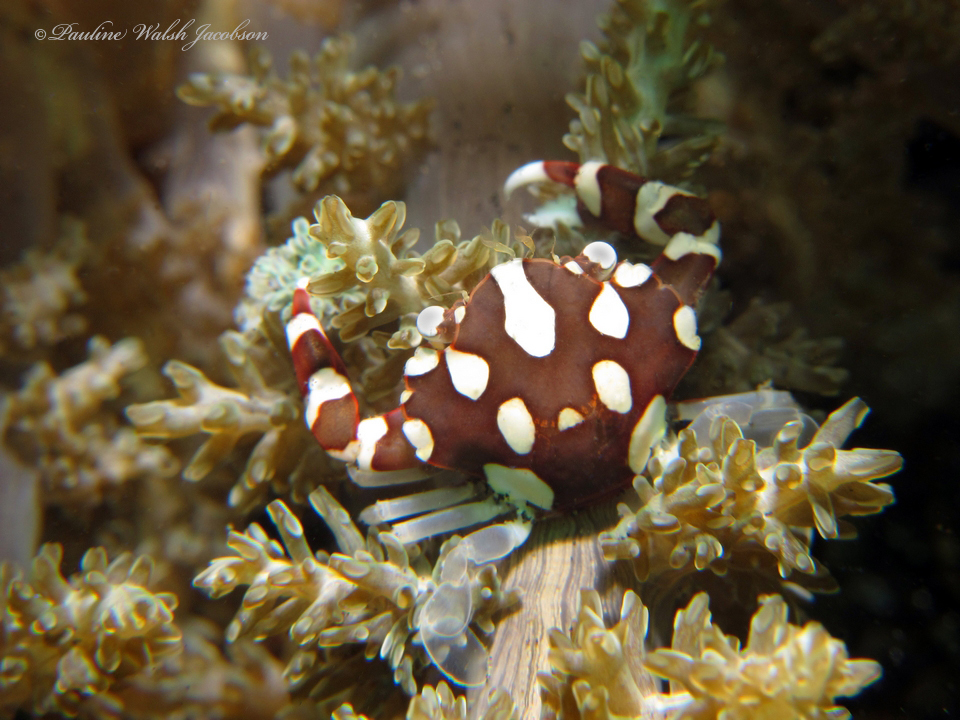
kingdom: Animalia
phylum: Arthropoda
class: Malacostraca
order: Decapoda
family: Portunidae
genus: Lissocarcinus
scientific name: Lissocarcinus laevis
